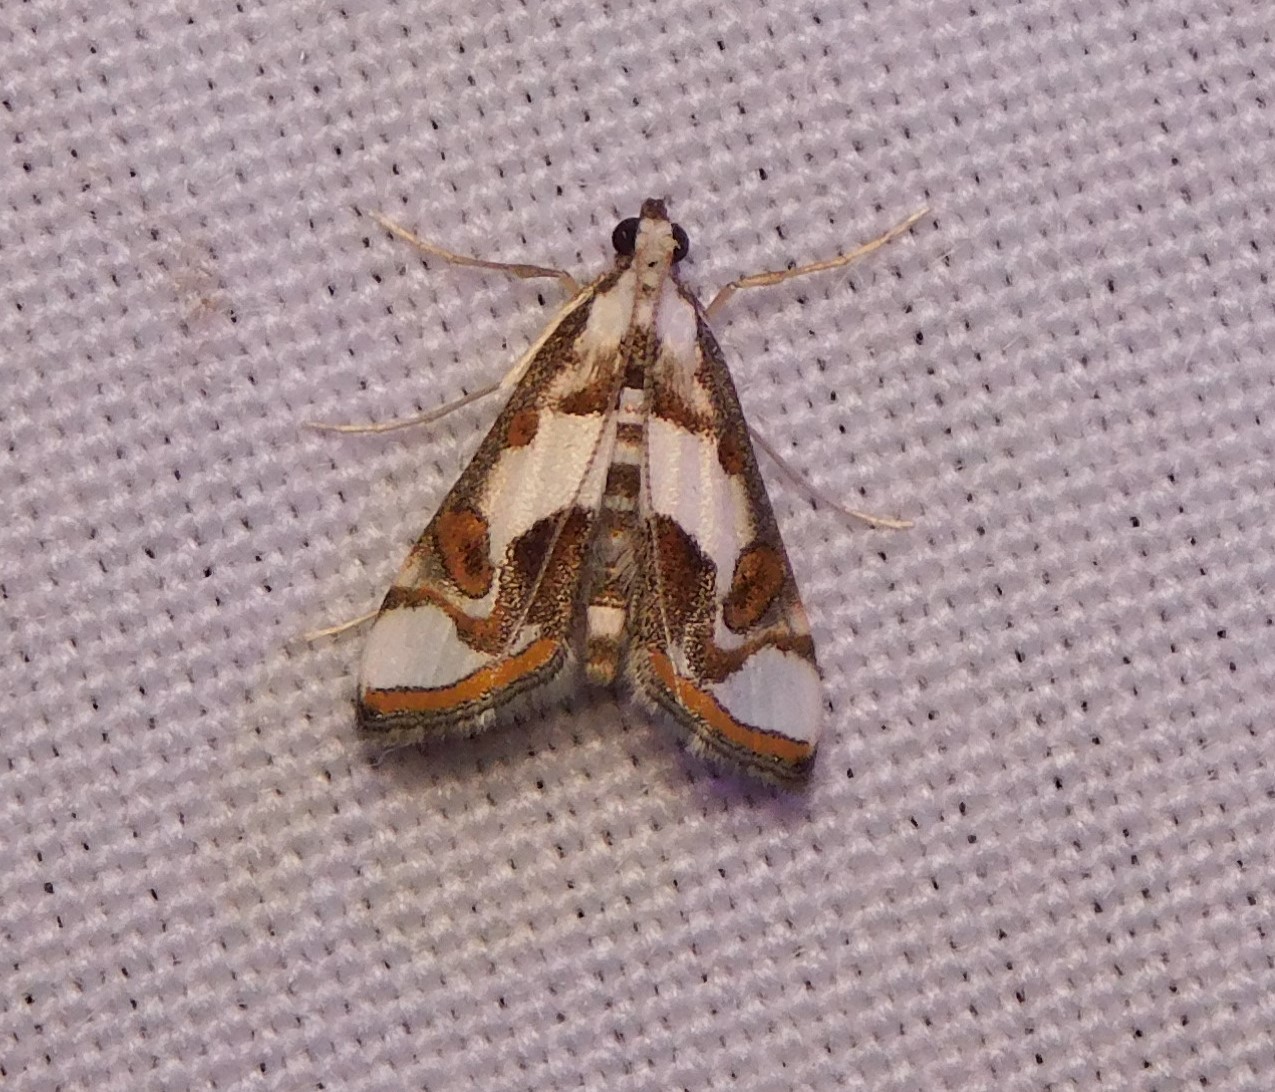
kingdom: Animalia
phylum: Arthropoda
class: Insecta
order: Lepidoptera
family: Crambidae
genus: Agassiziella
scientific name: Agassiziella picalis
